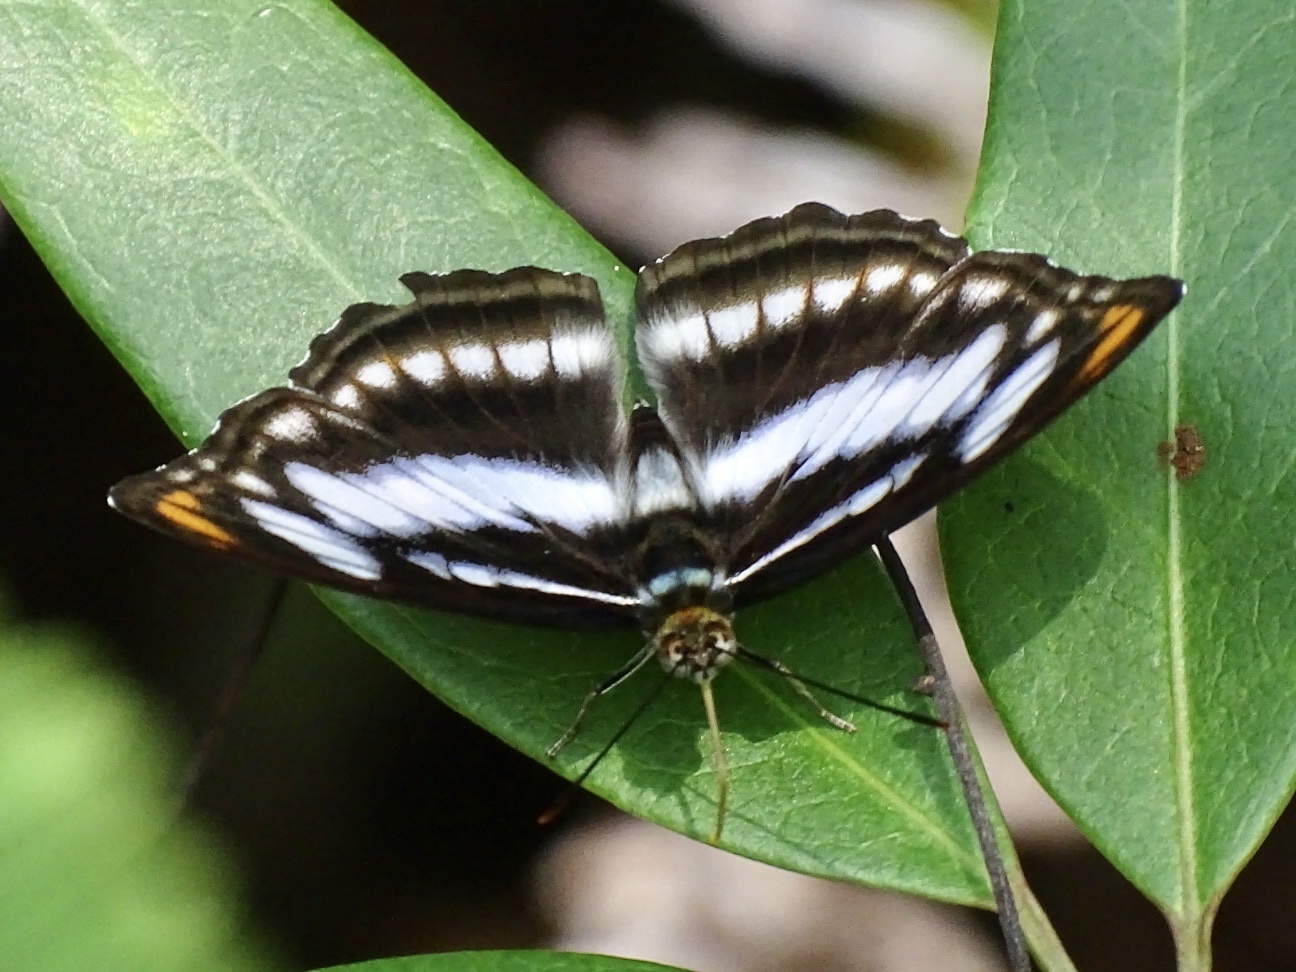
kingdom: Animalia
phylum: Arthropoda
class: Insecta
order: Lepidoptera
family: Nymphalidae
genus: Parathyma
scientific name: Parathyma nefte
